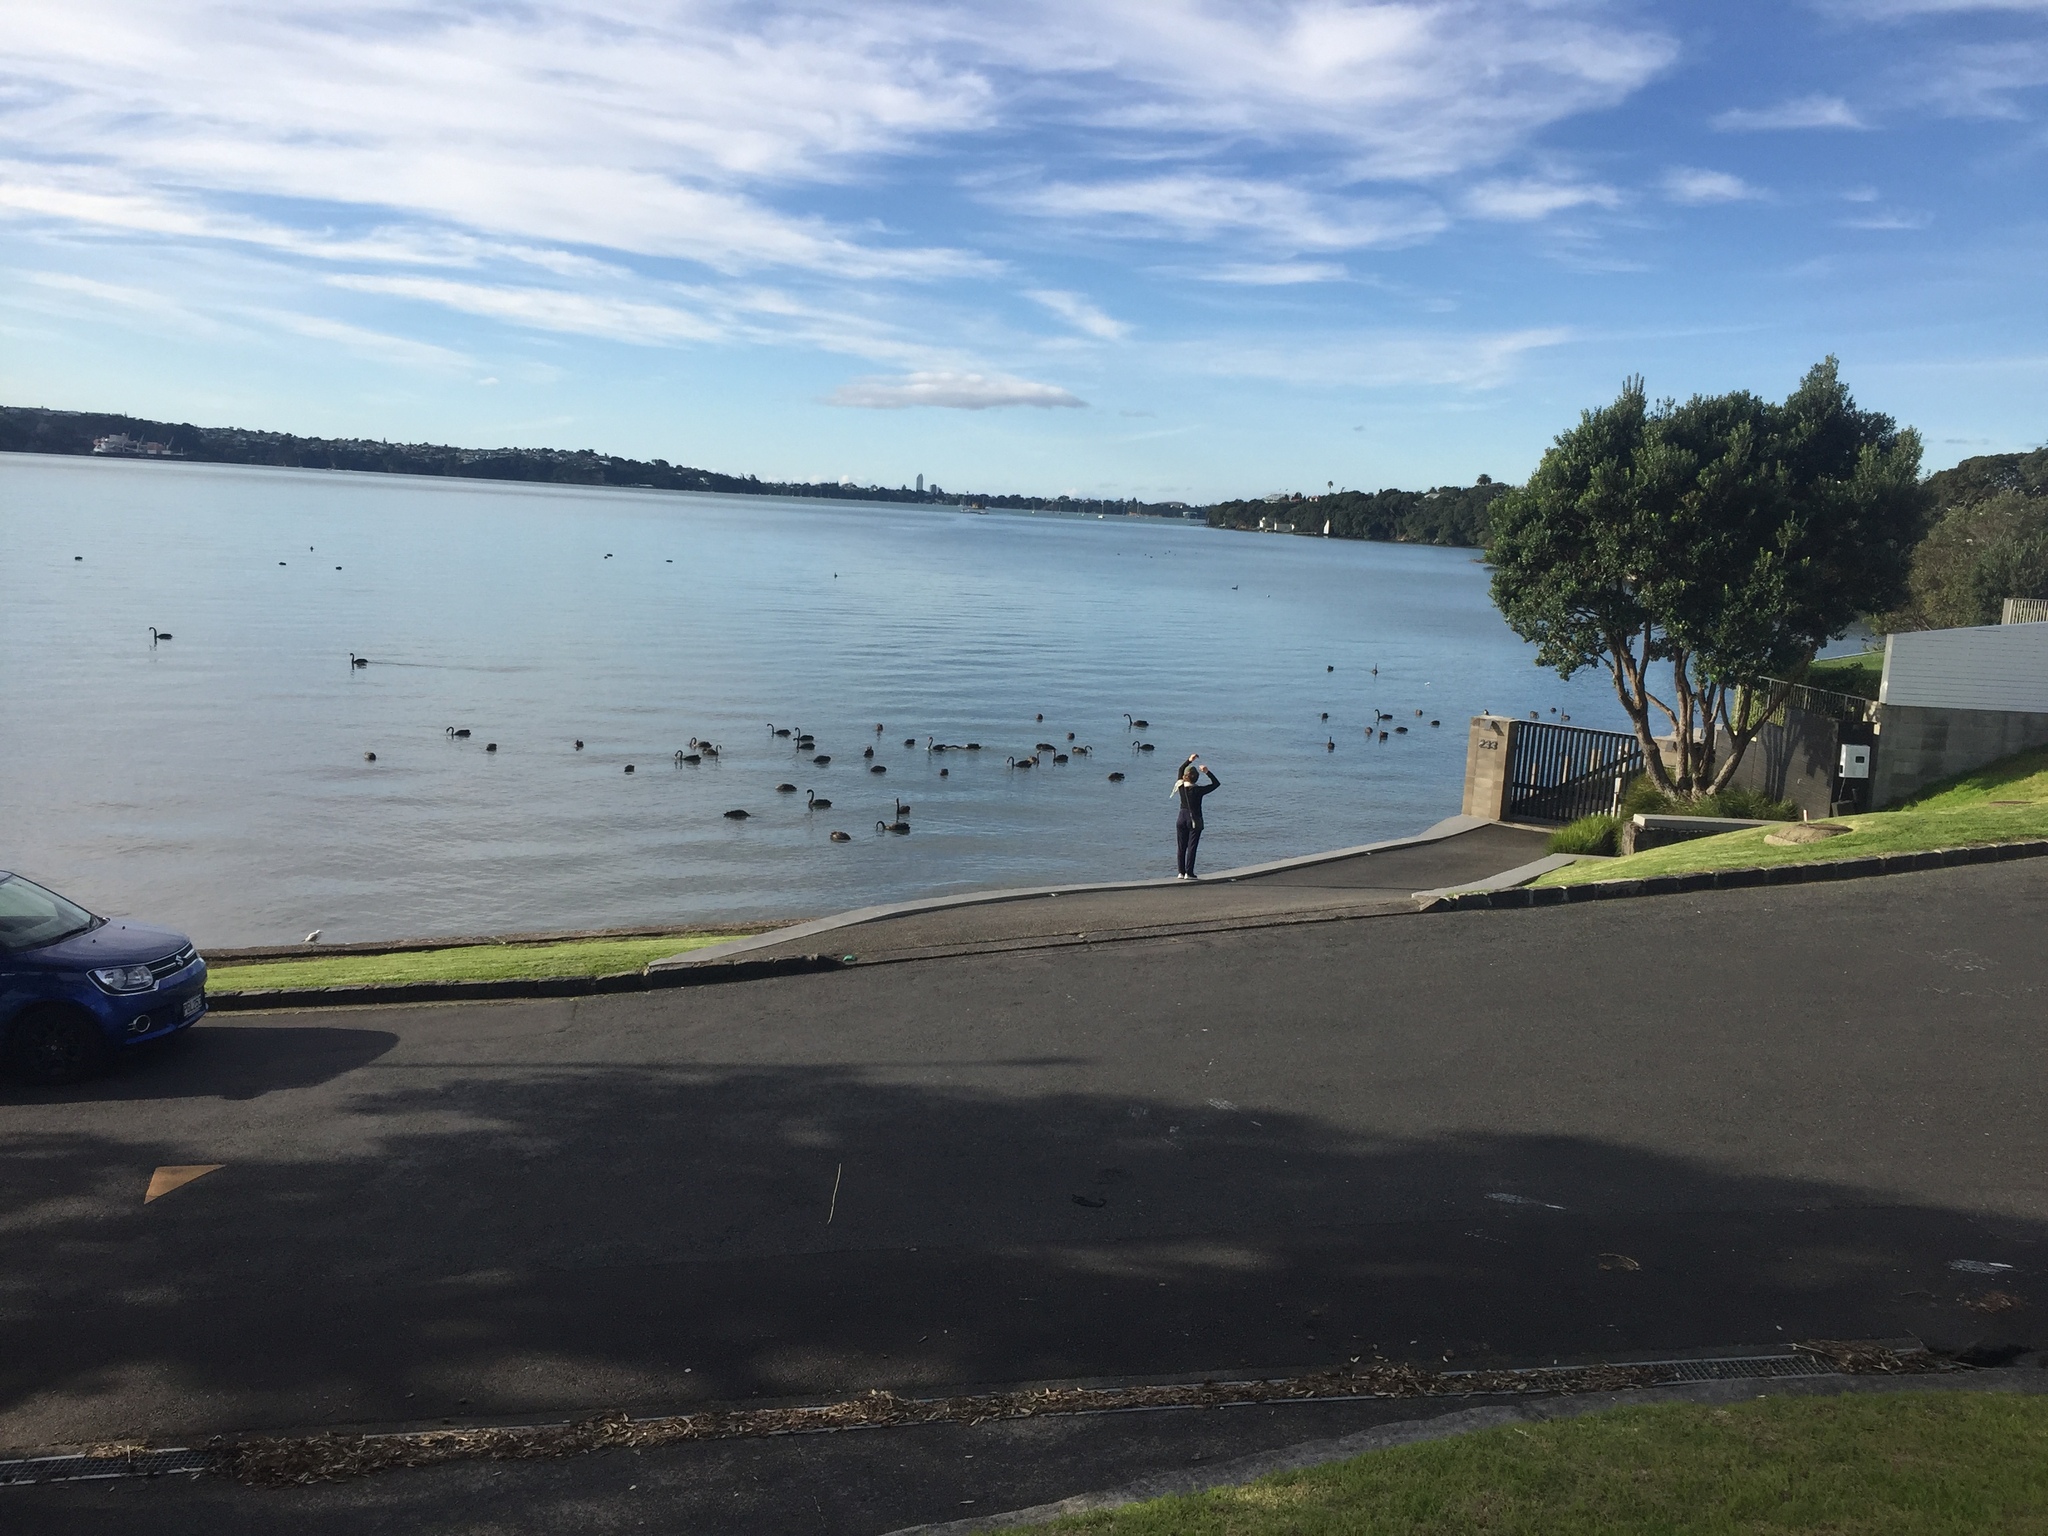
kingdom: Animalia
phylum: Chordata
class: Aves
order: Anseriformes
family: Anatidae
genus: Cygnus
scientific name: Cygnus atratus
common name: Black swan
